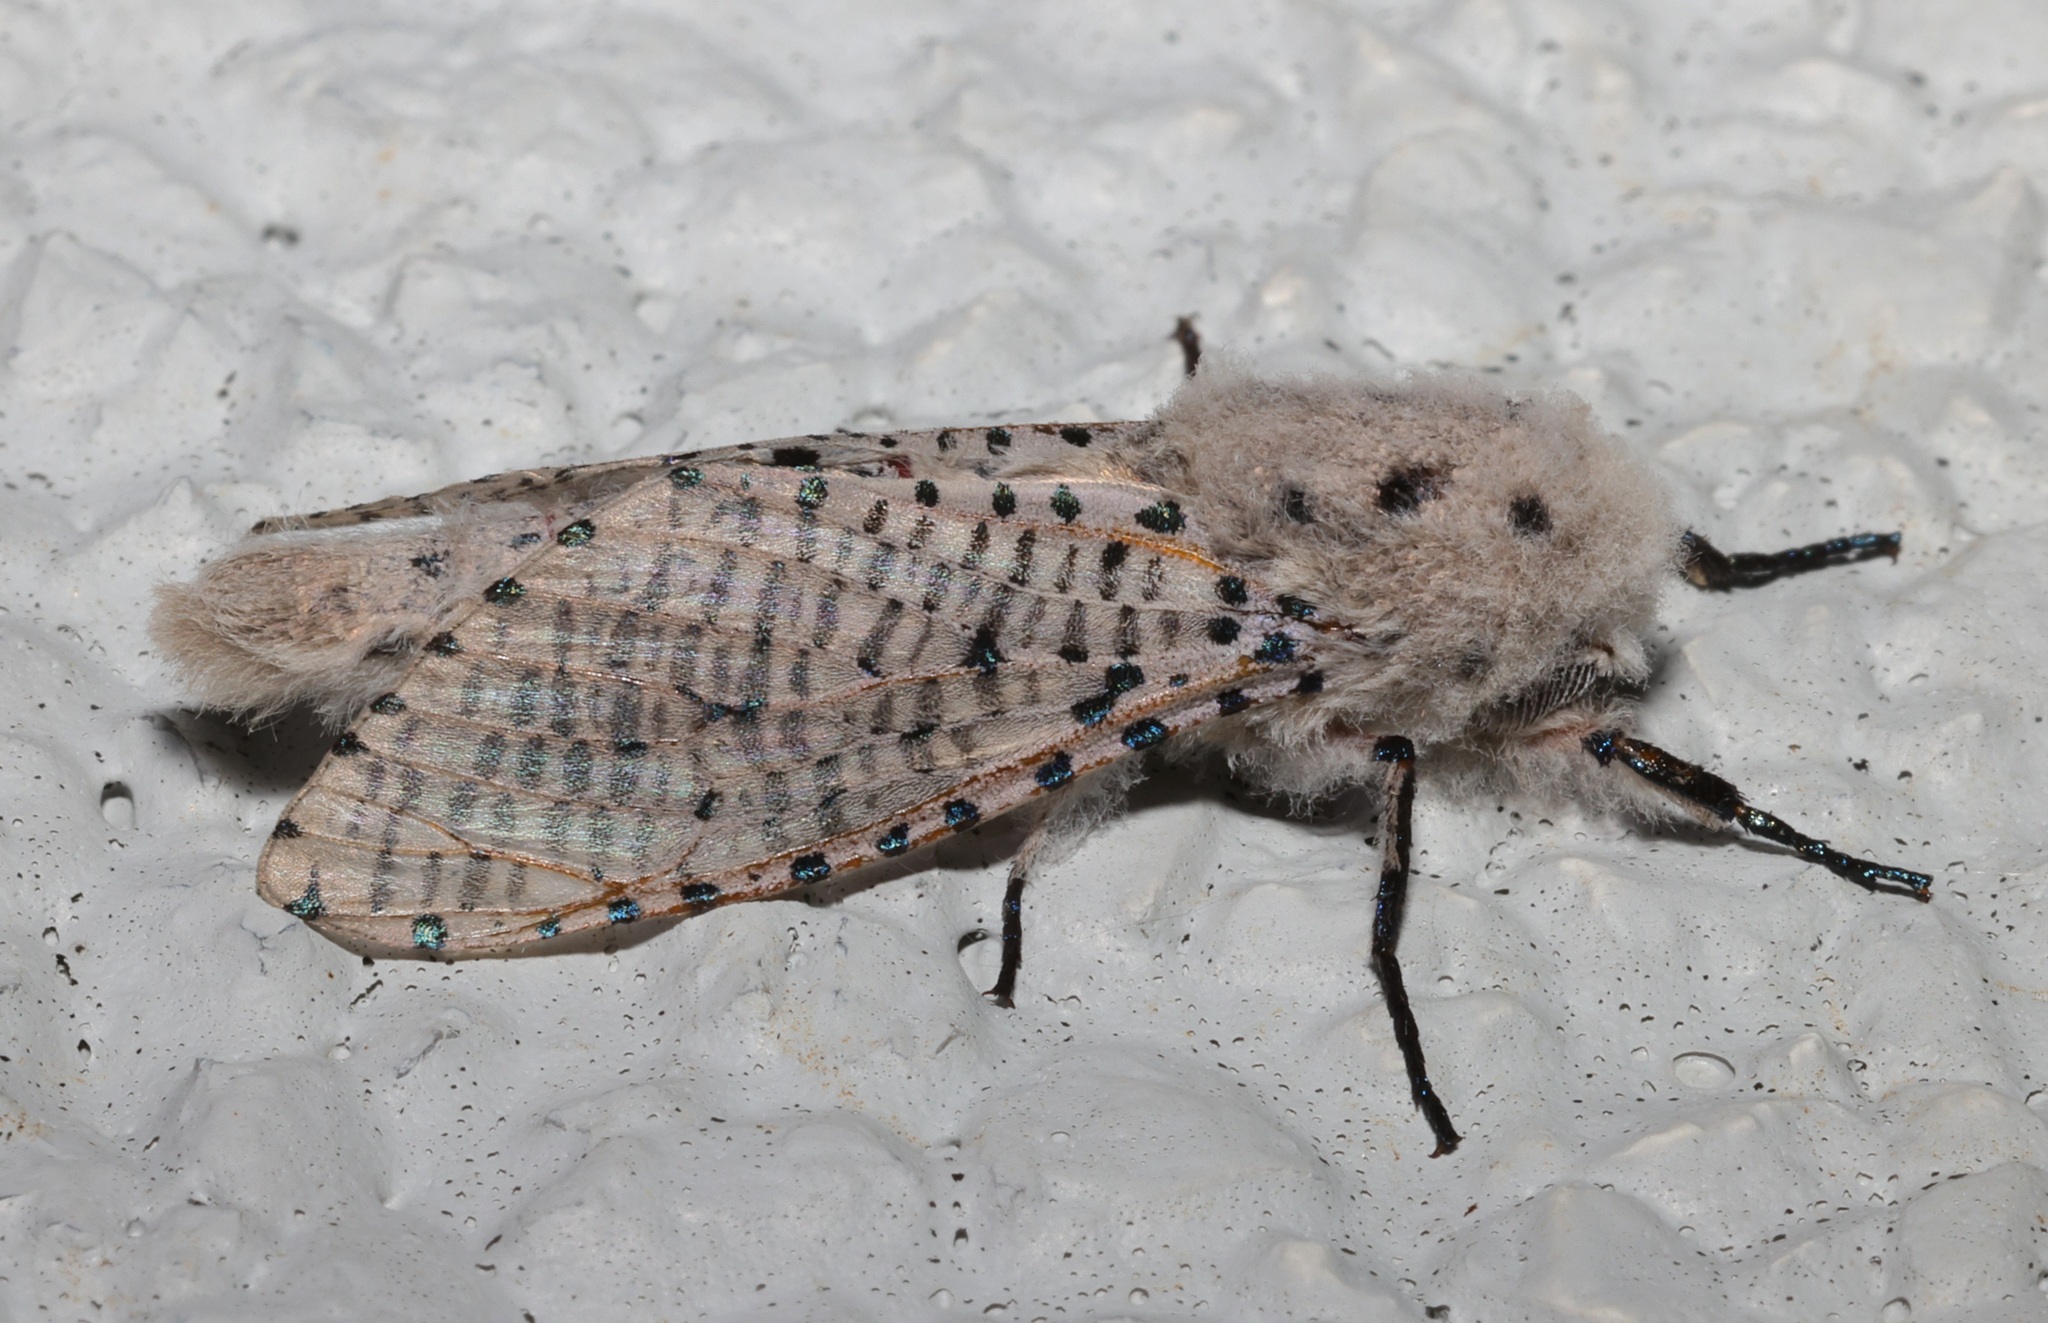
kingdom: Animalia
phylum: Arthropoda
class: Insecta
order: Lepidoptera
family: Cossidae
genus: Polyphagozerra
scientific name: Polyphagozerra coffeae
